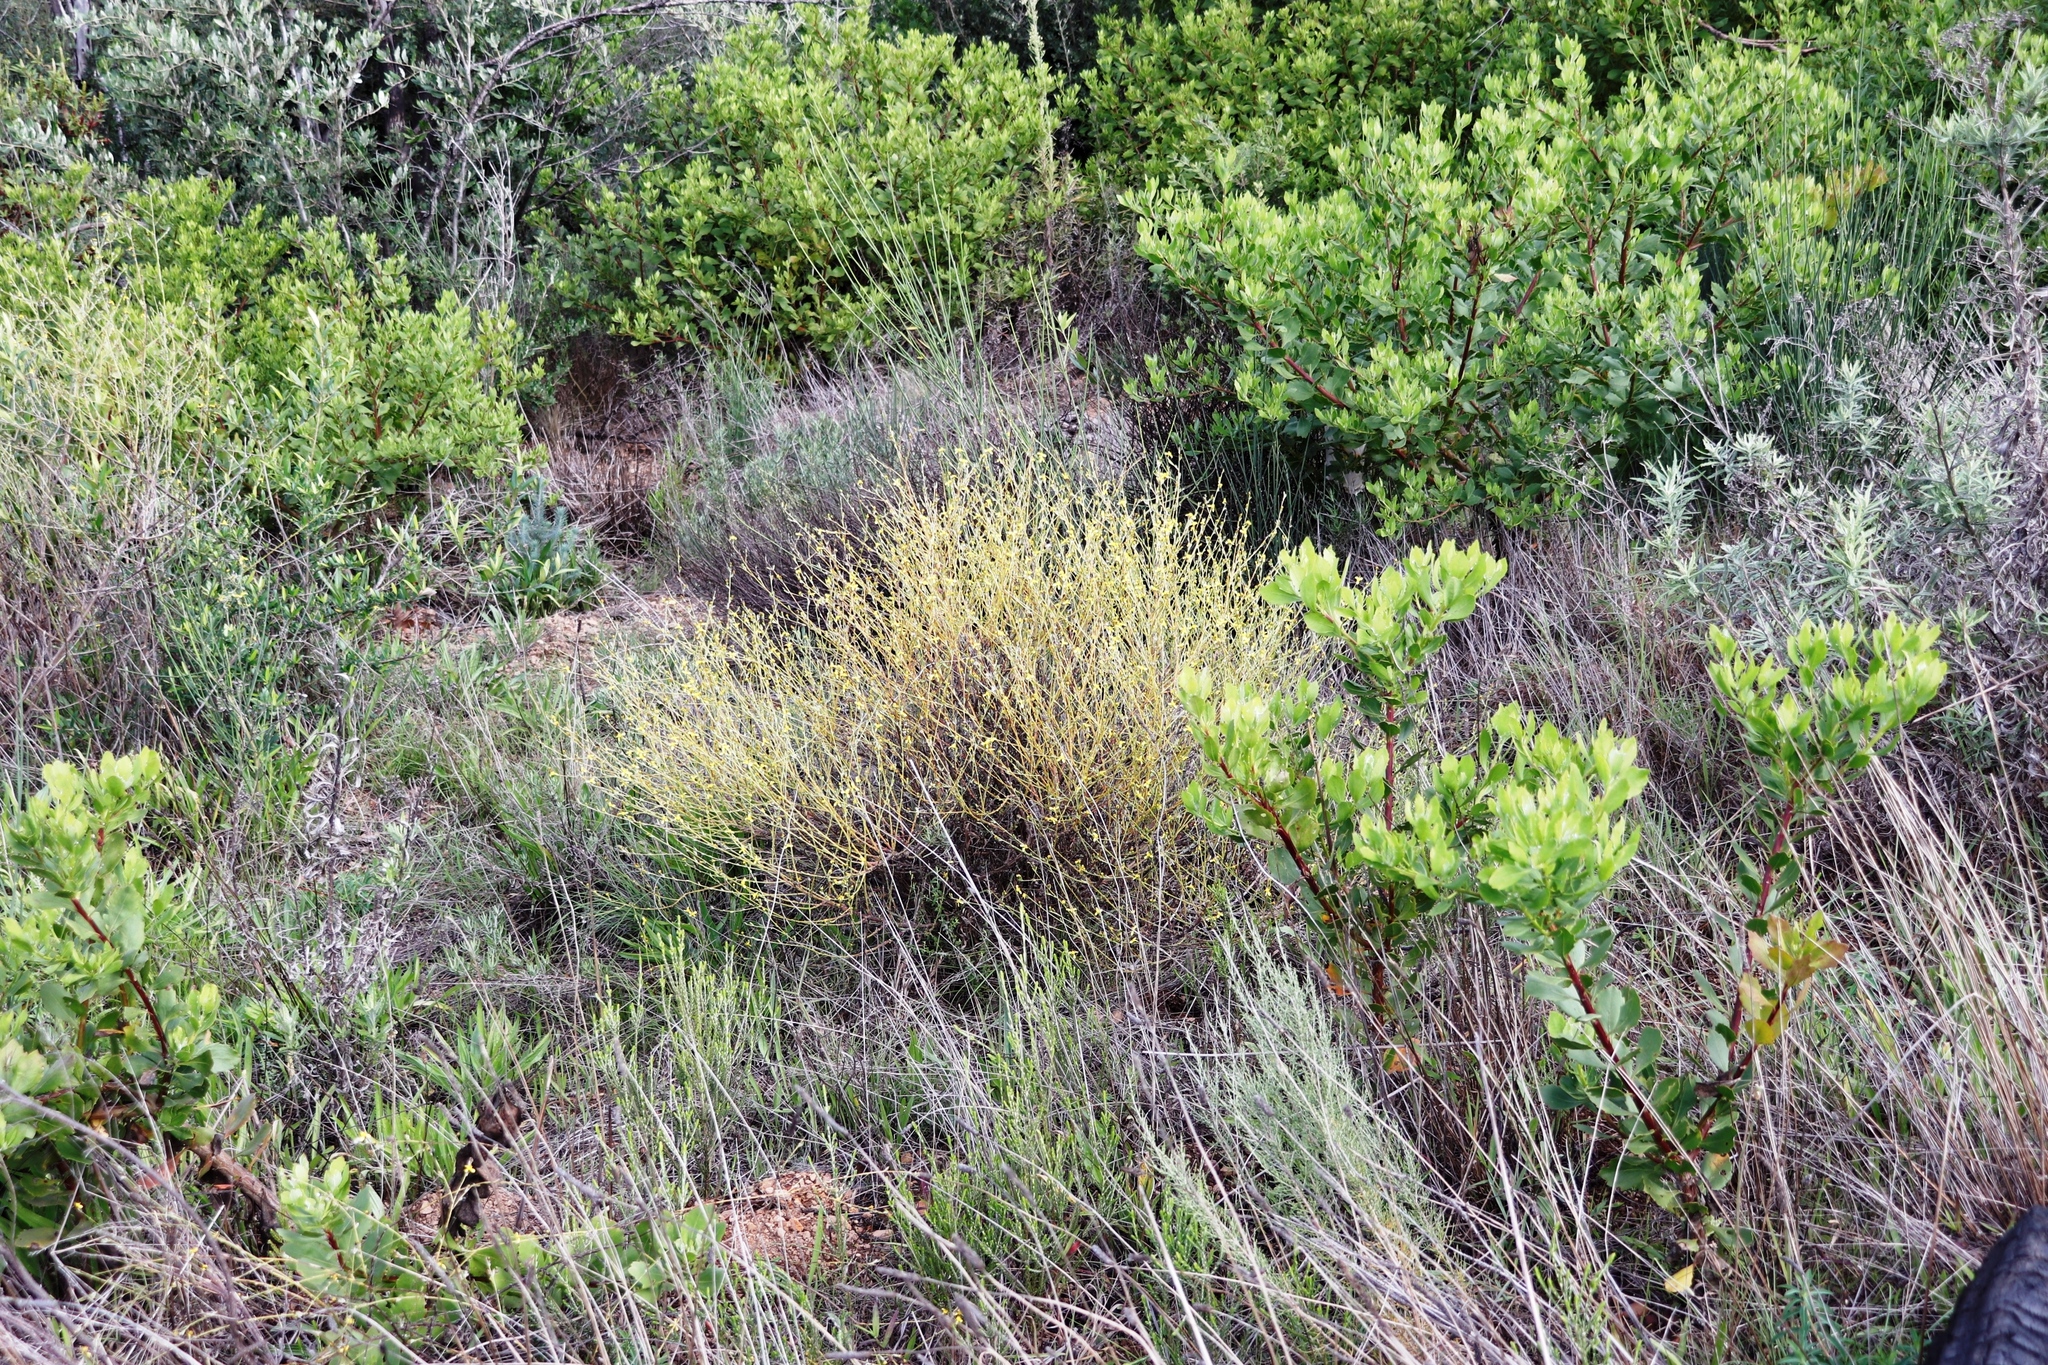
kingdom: Plantae
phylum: Tracheophyta
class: Magnoliopsida
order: Asterales
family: Asteraceae
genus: Senecio
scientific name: Senecio pubigerus
